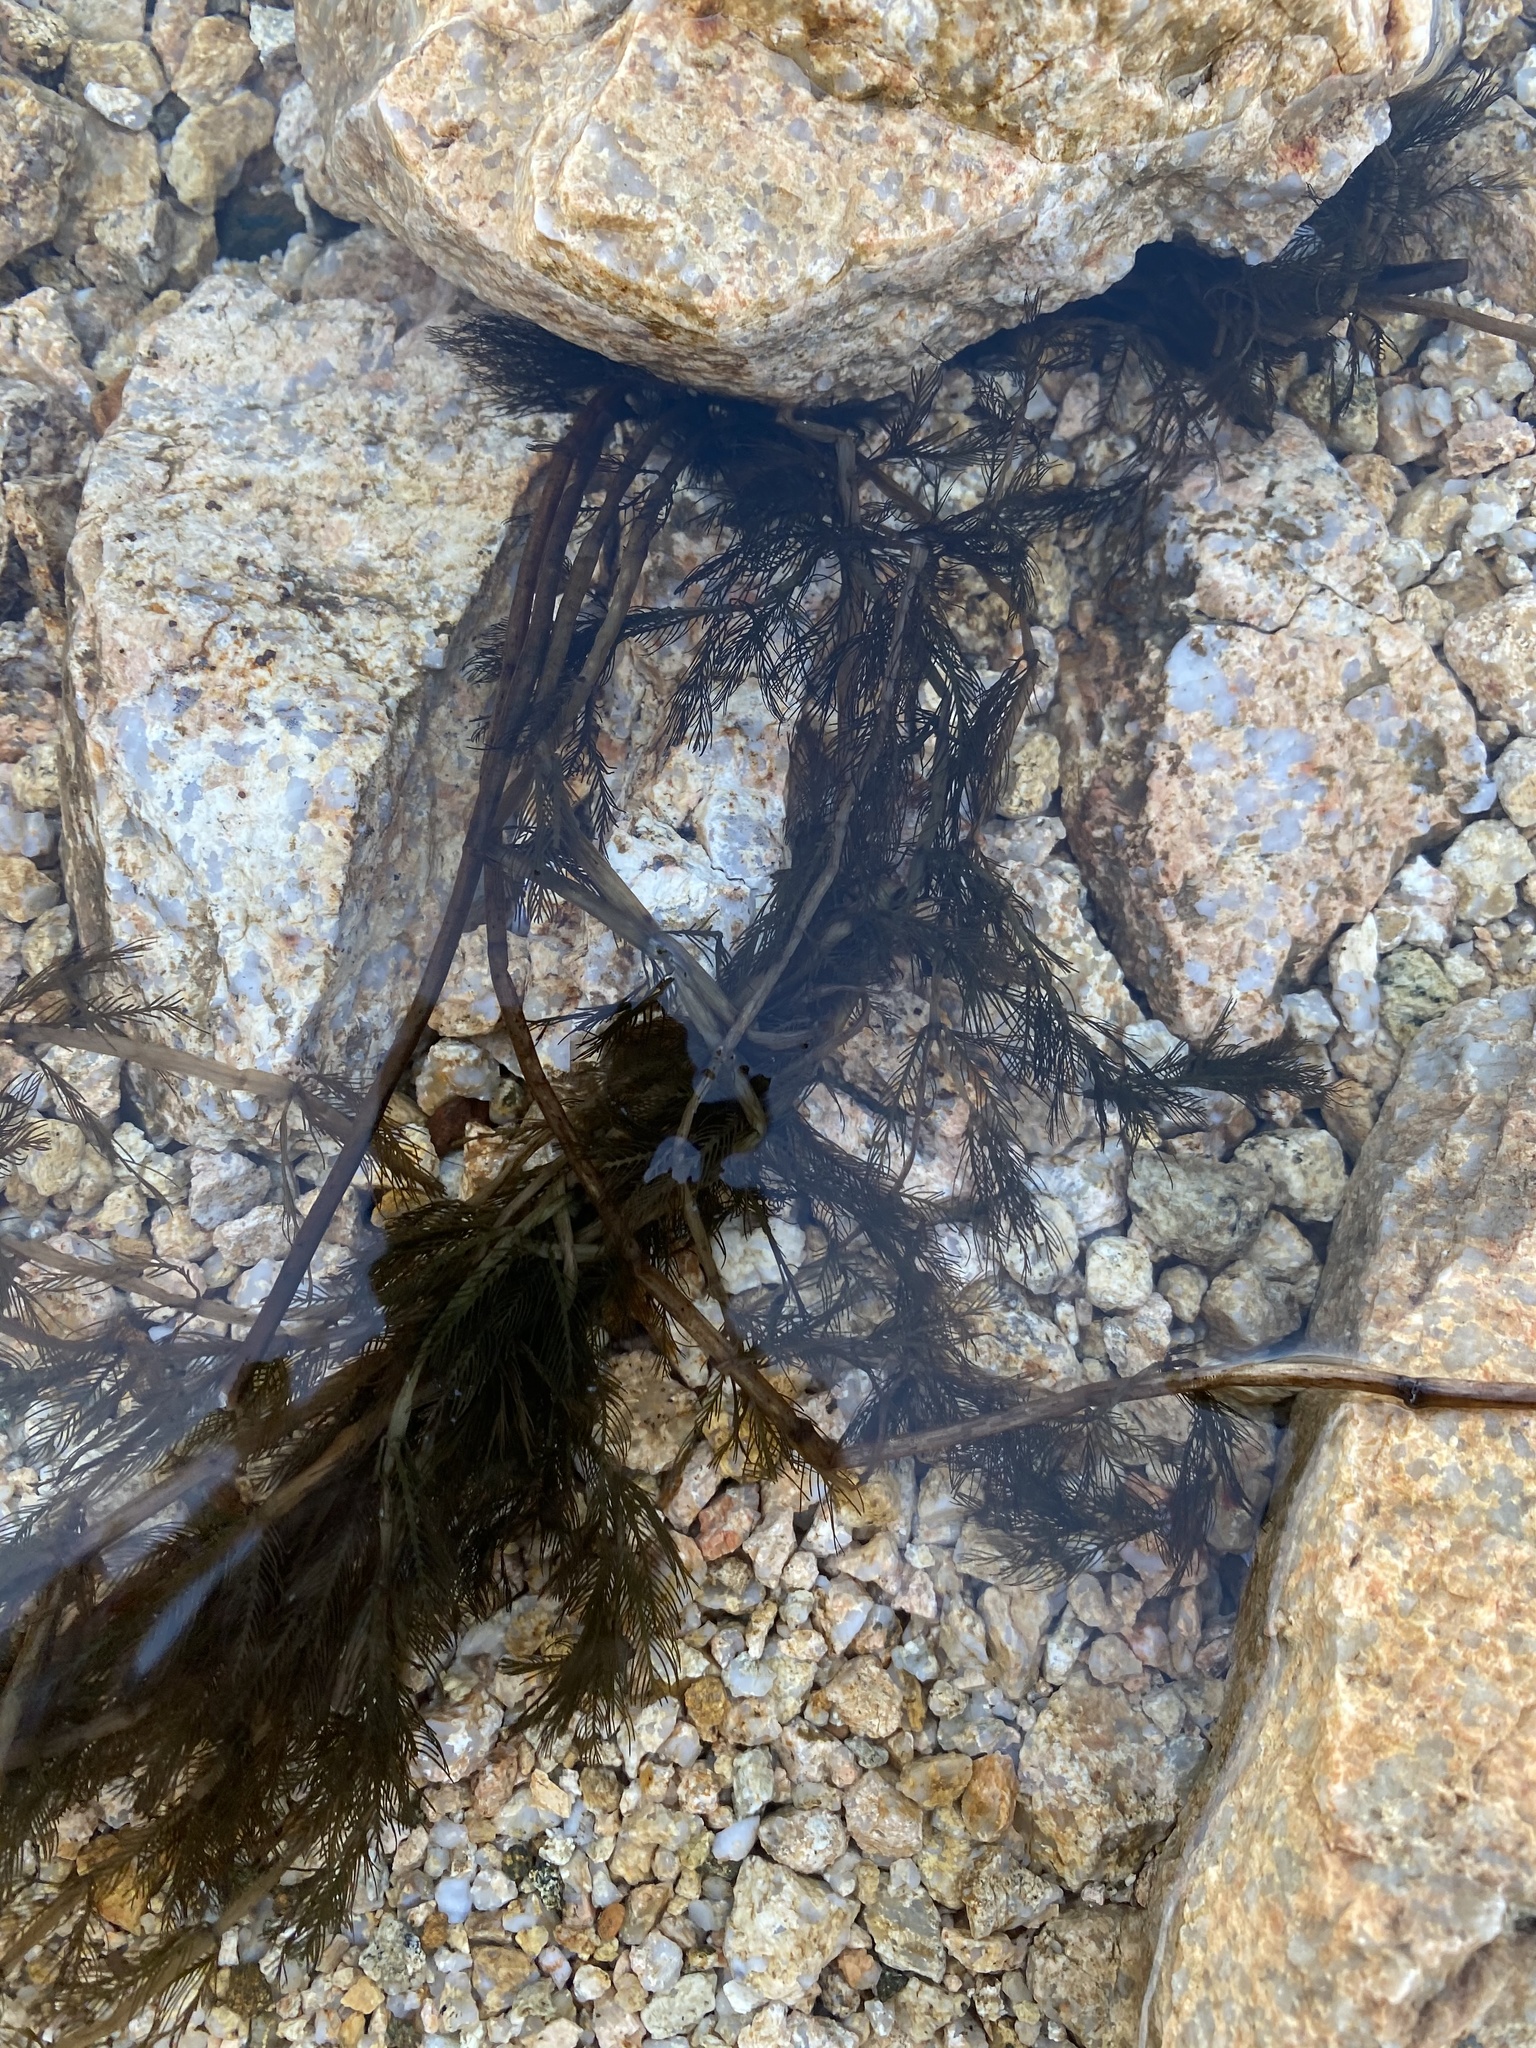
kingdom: Plantae
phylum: Tracheophyta
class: Magnoliopsida
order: Saxifragales
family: Haloragaceae
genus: Myriophyllum
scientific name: Myriophyllum spicatum
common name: Spiked water-milfoil
